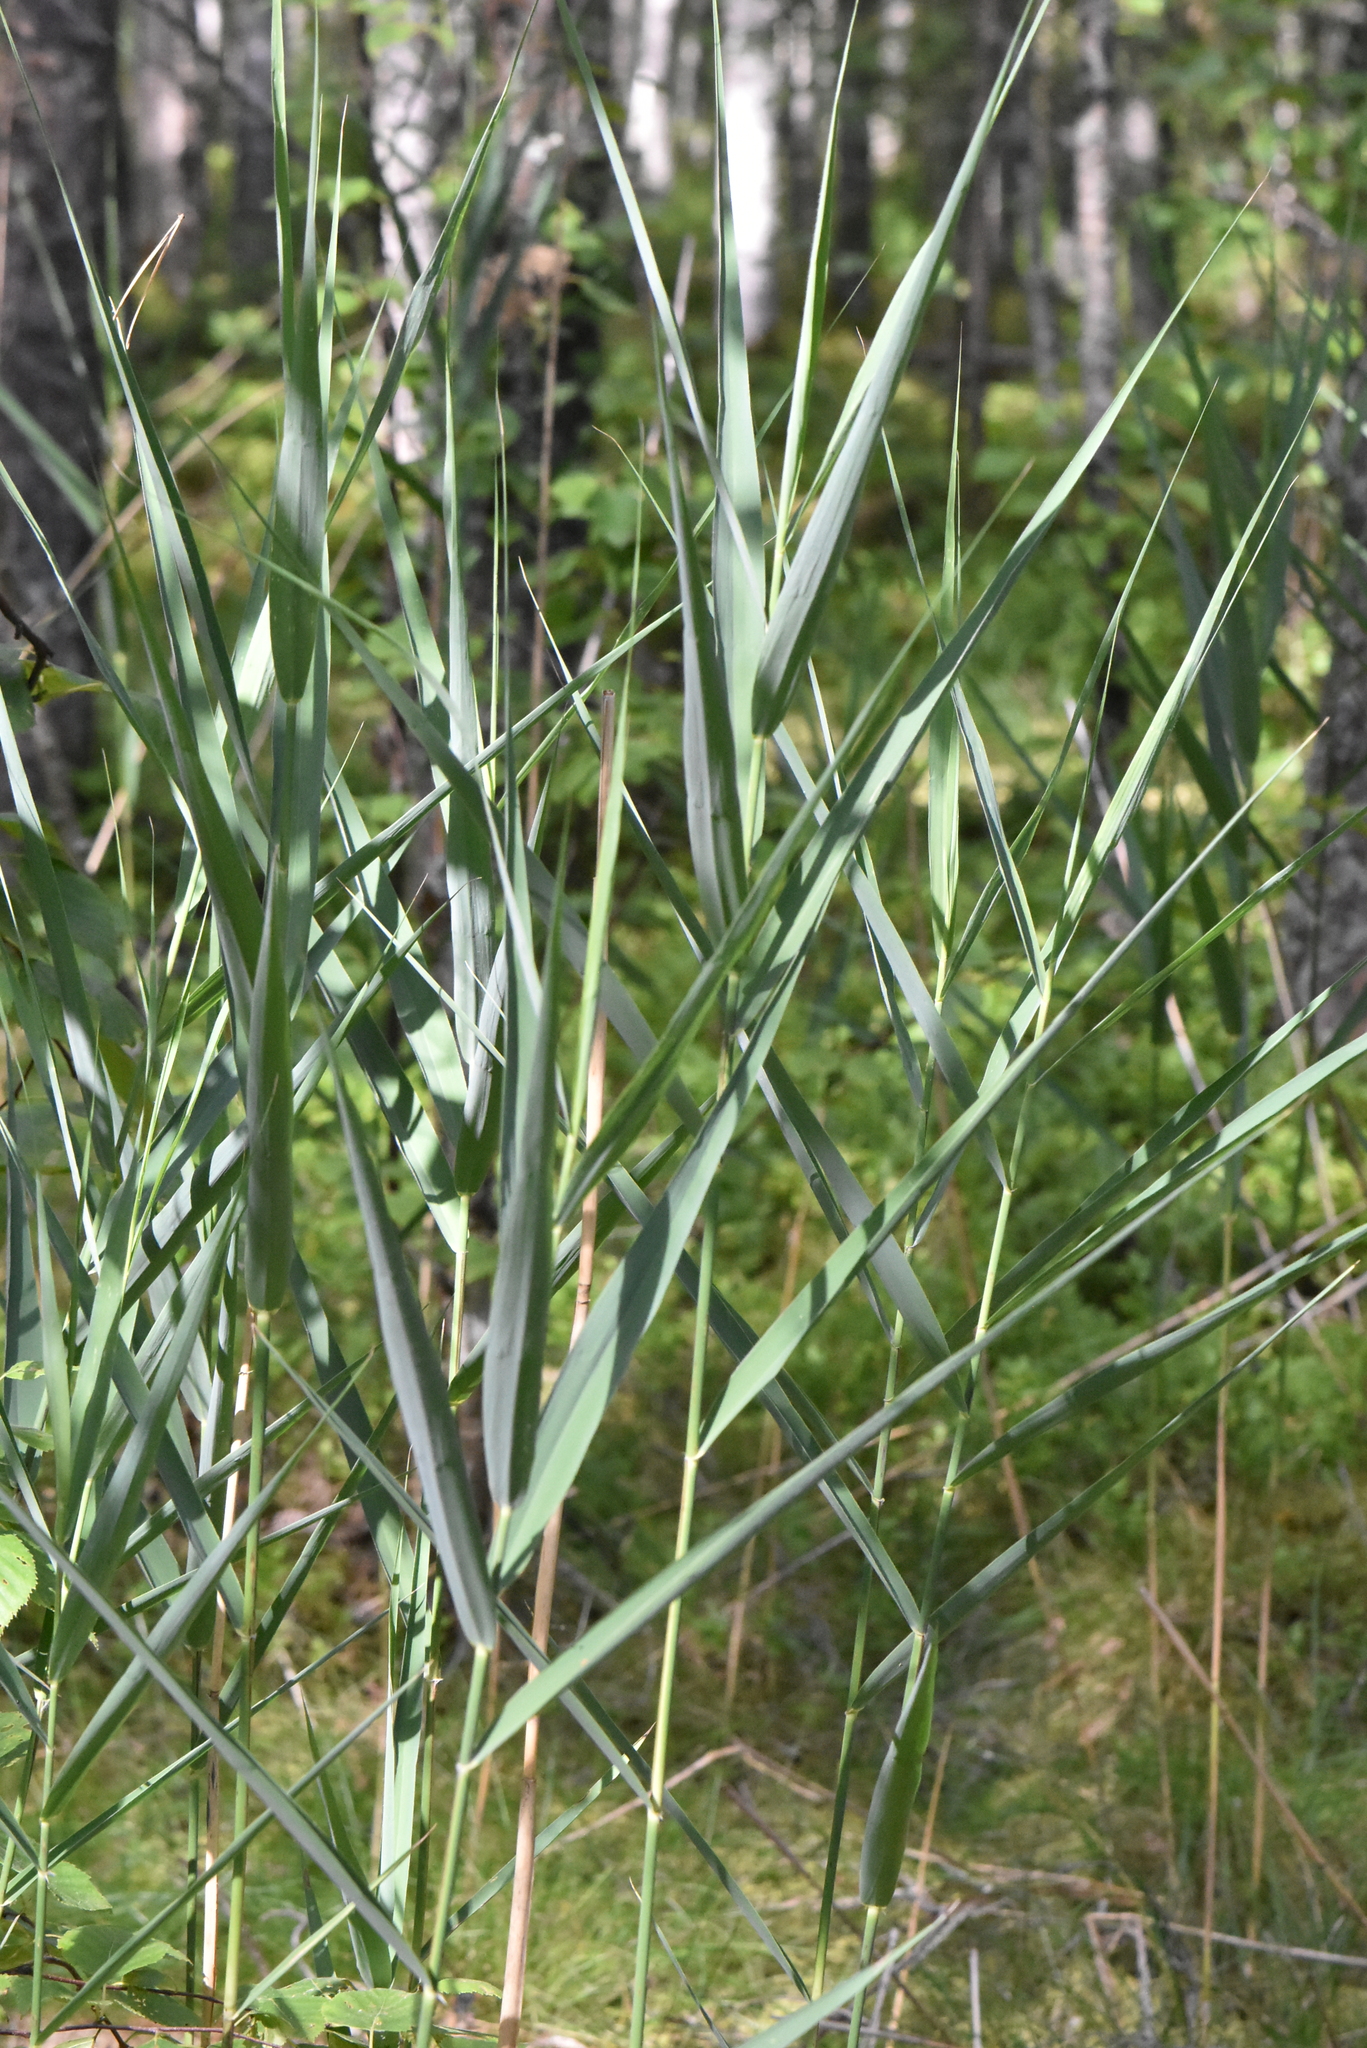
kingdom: Plantae
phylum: Tracheophyta
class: Liliopsida
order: Poales
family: Poaceae
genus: Phragmites
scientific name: Phragmites australis
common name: Common reed
